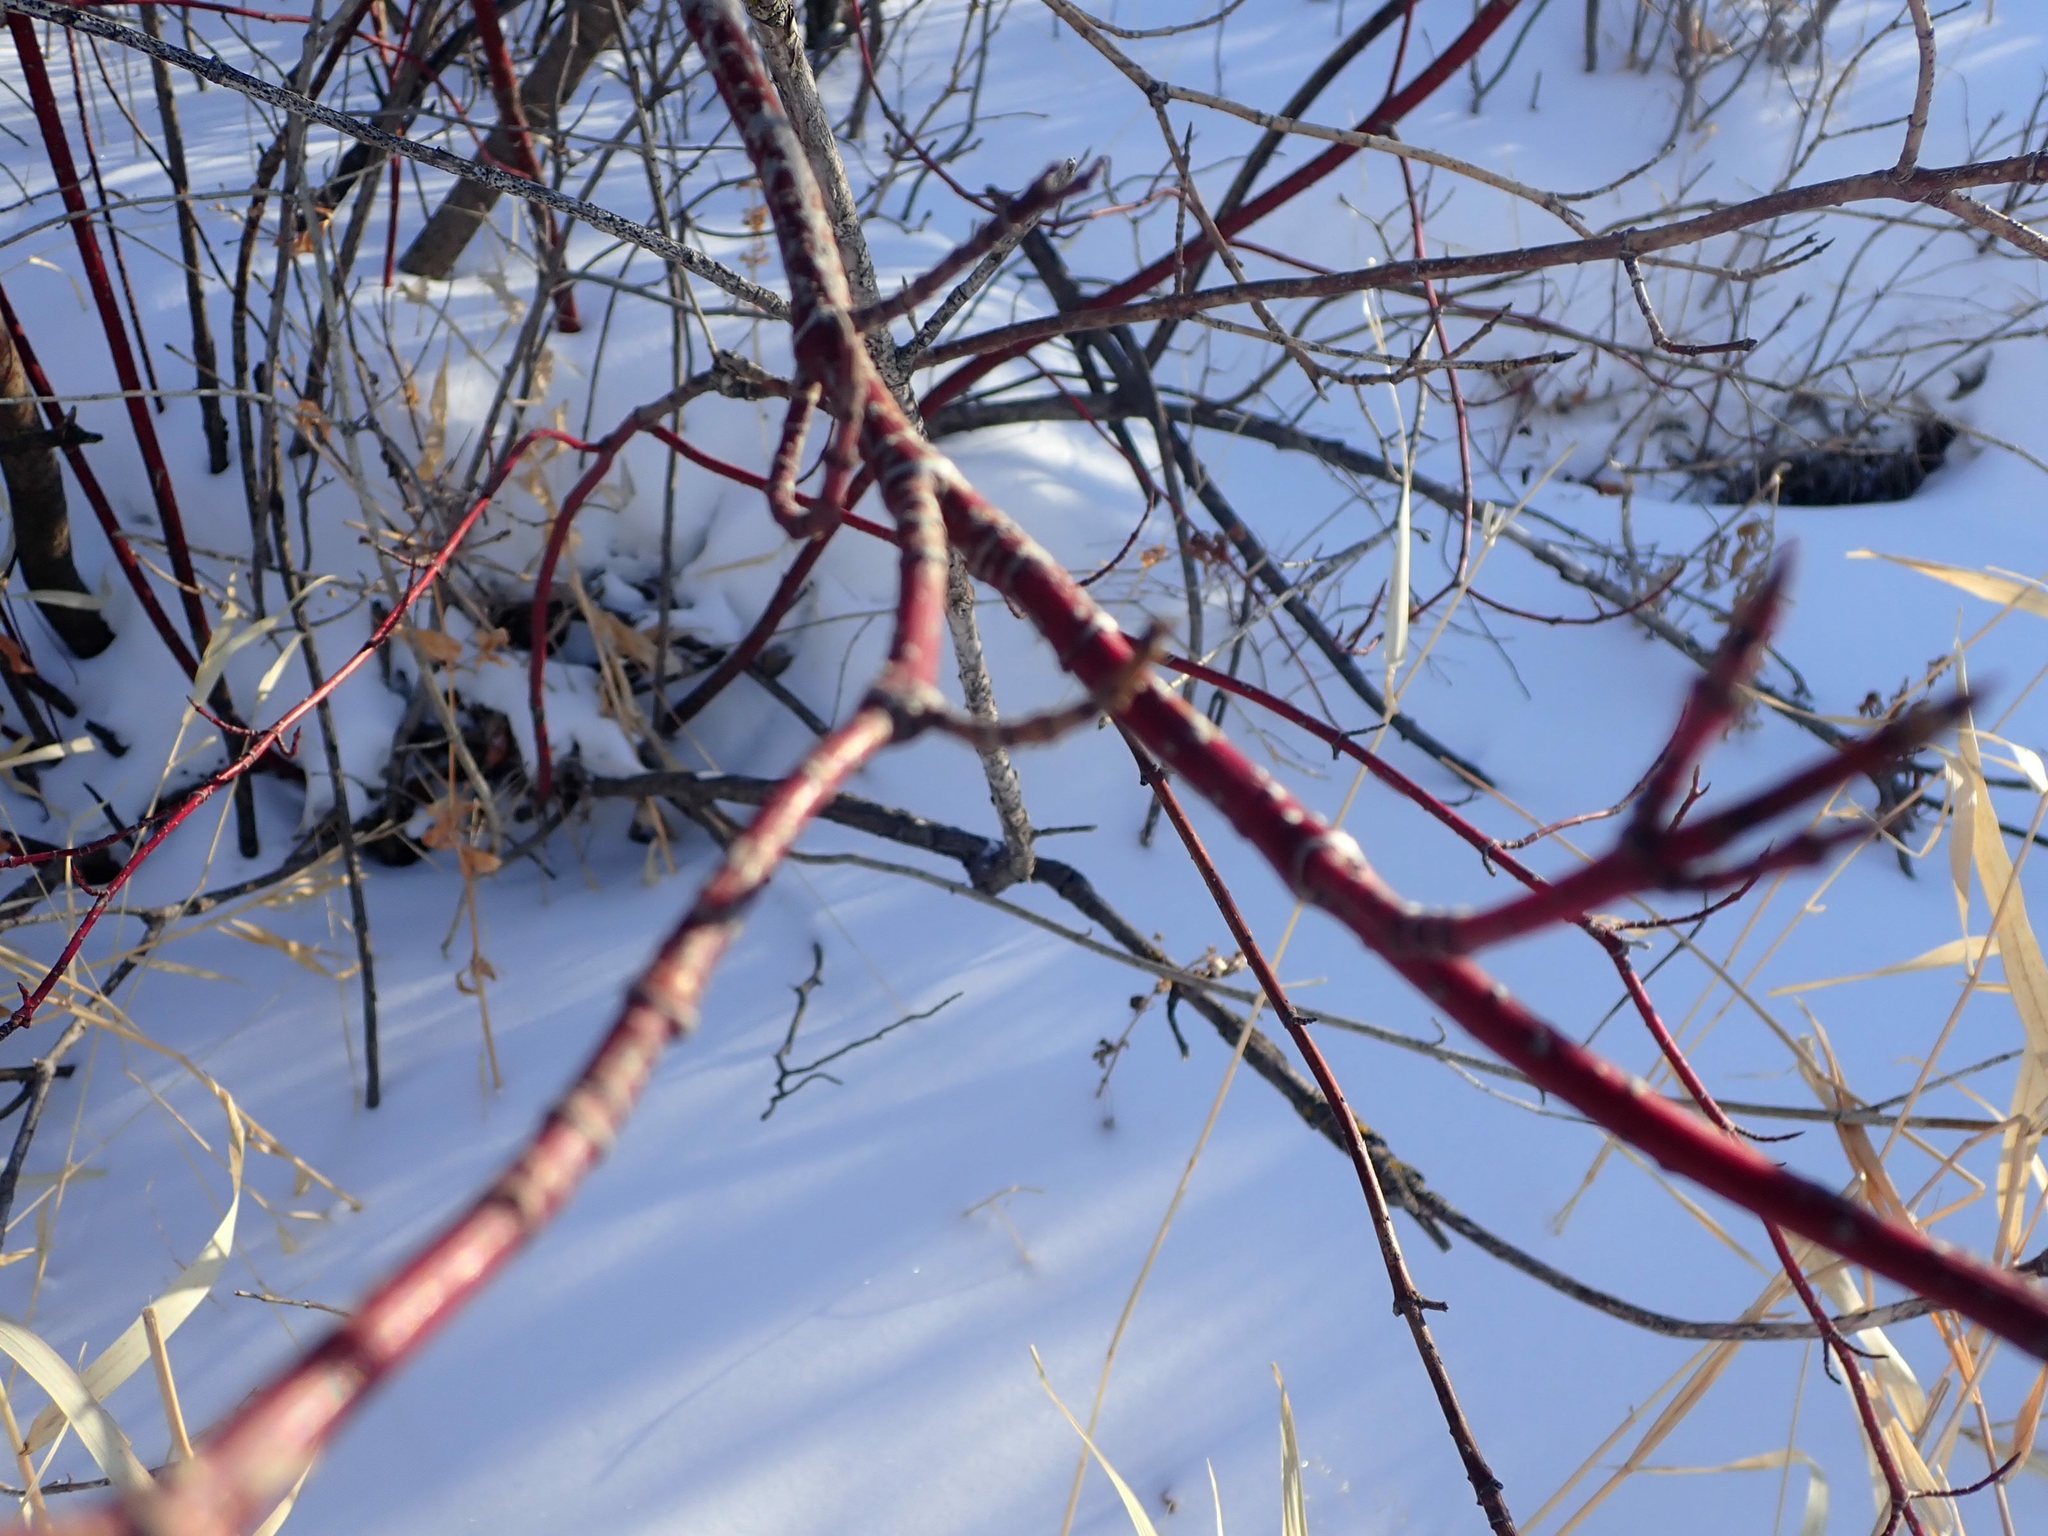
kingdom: Plantae
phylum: Tracheophyta
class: Magnoliopsida
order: Cornales
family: Cornaceae
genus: Cornus
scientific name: Cornus sericea
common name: Red-osier dogwood
